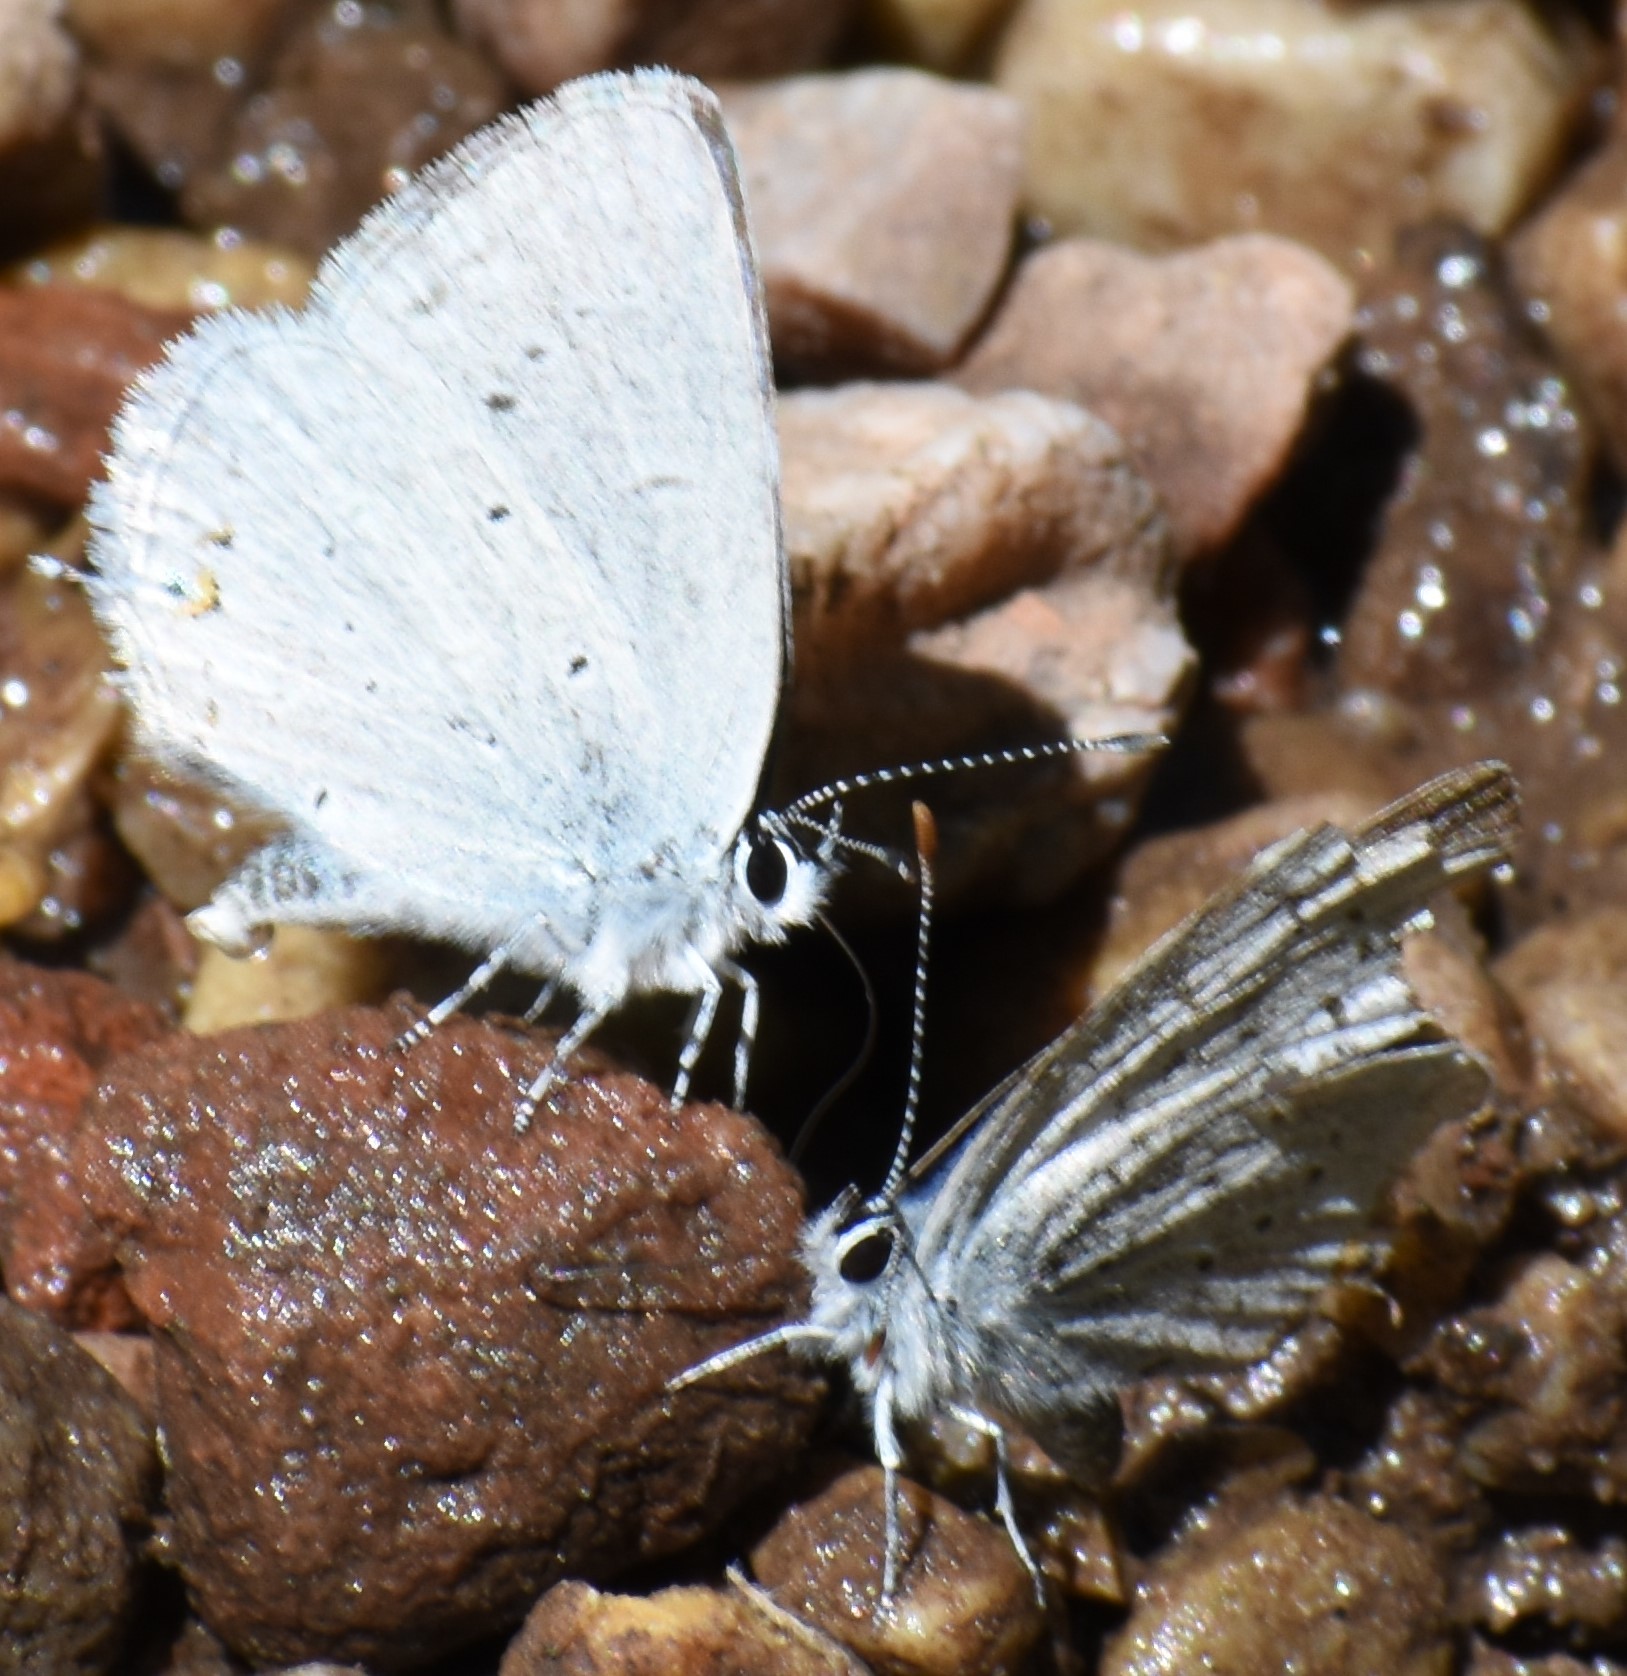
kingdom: Animalia
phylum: Arthropoda
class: Insecta
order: Lepidoptera
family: Lycaenidae
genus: Elkalyce
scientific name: Elkalyce amyntula
